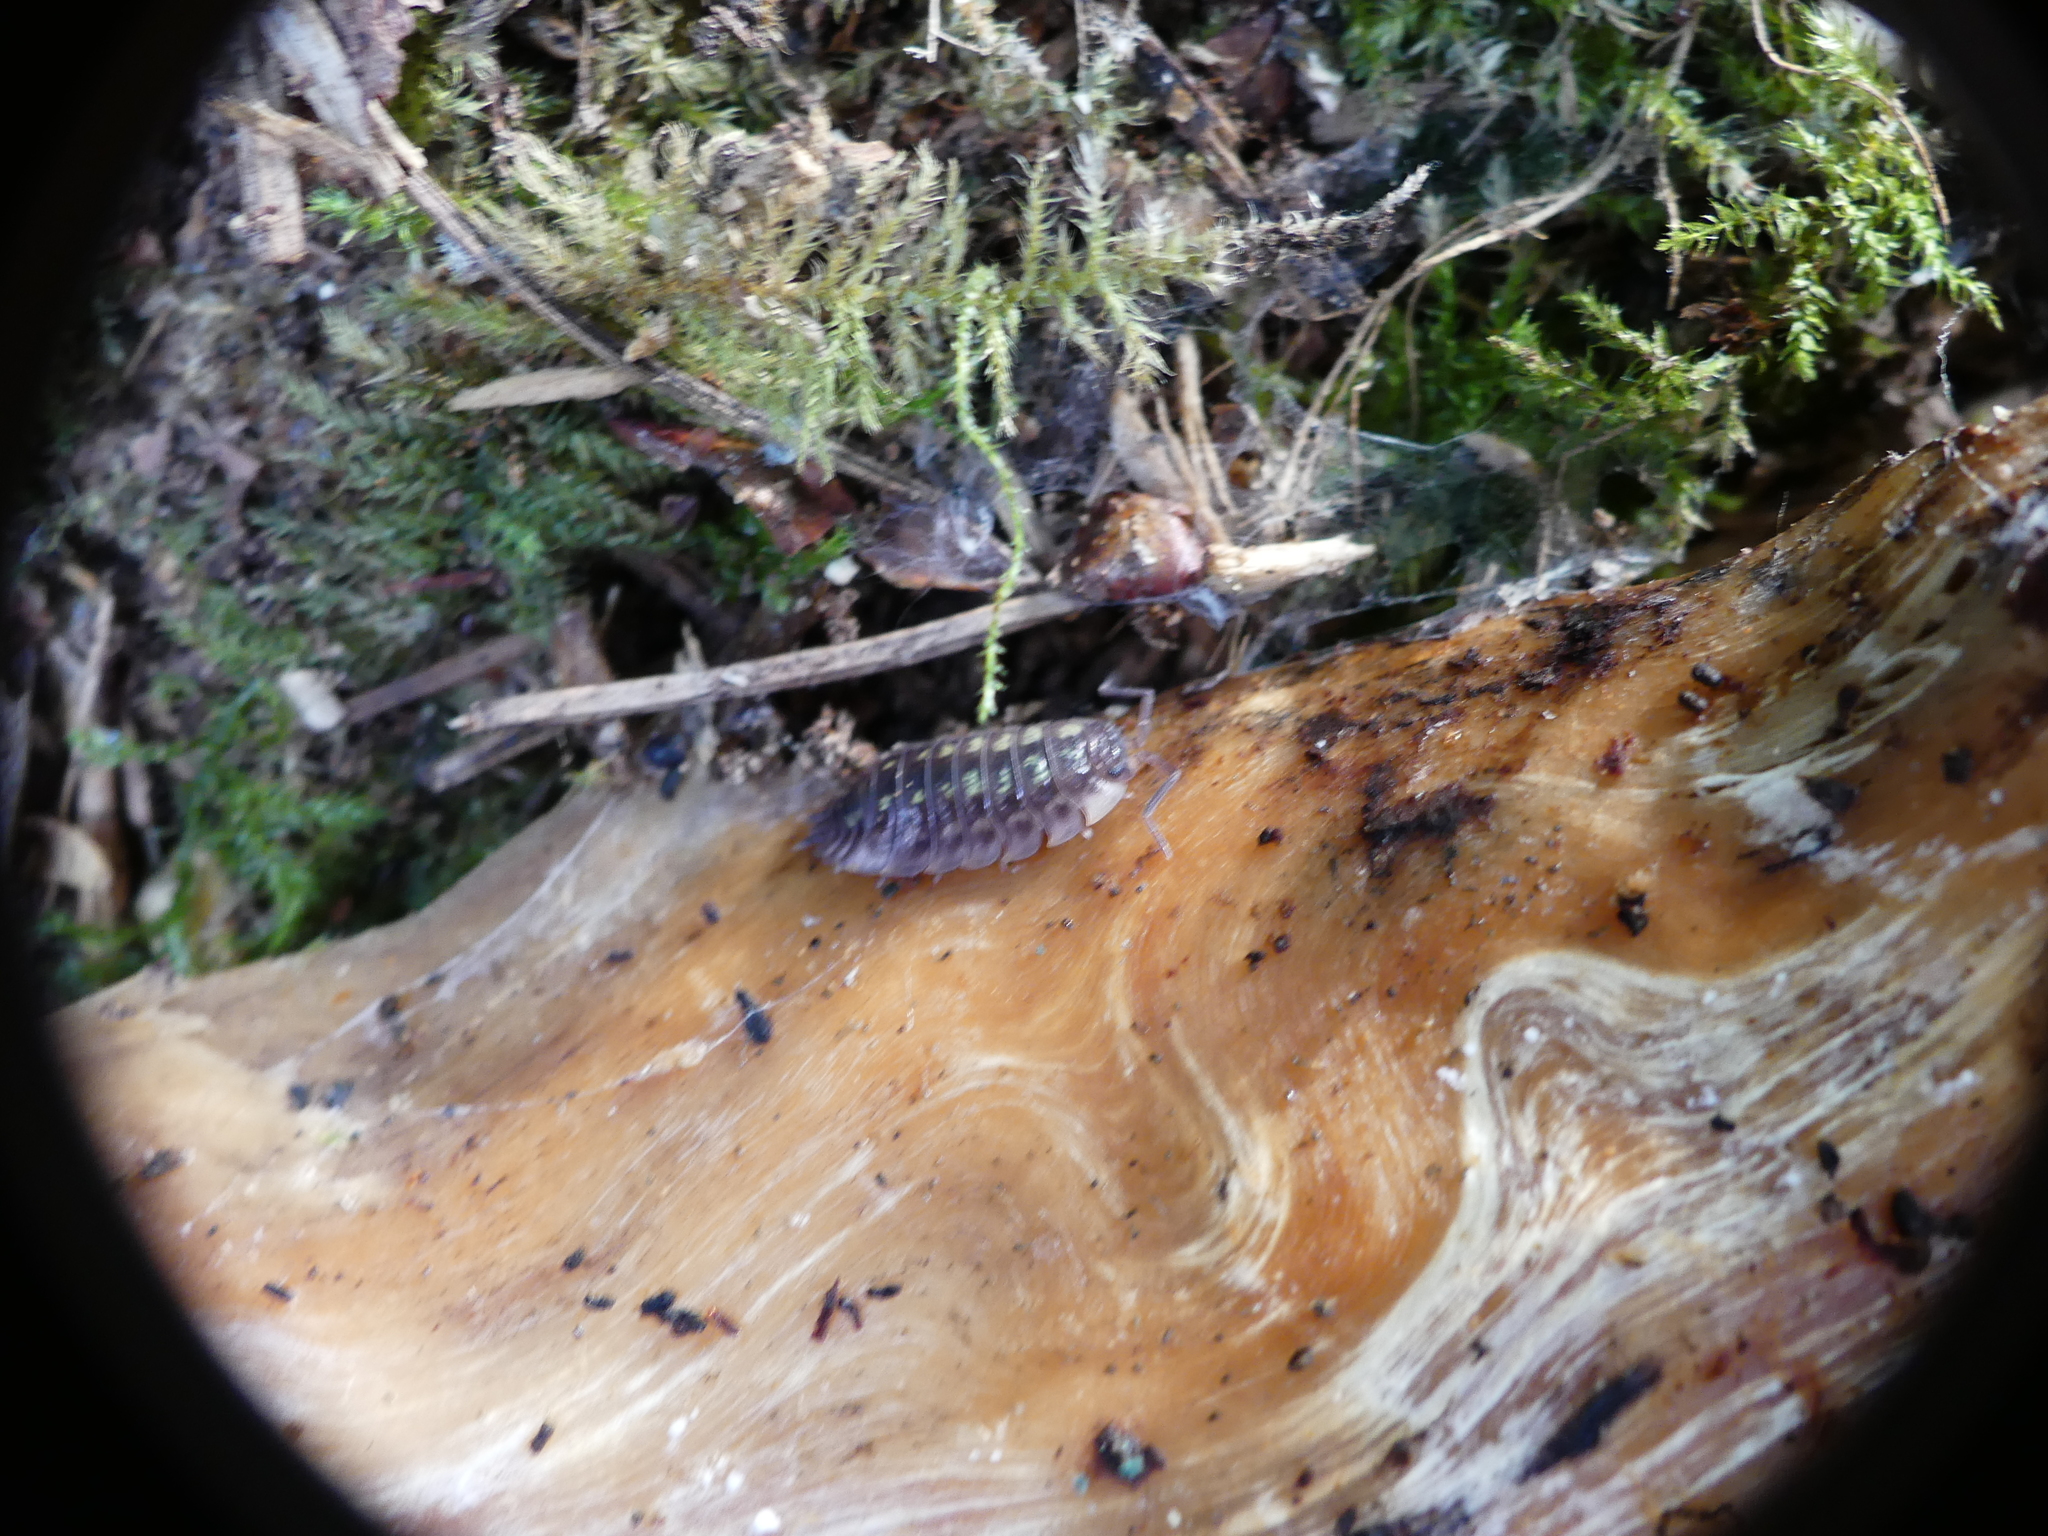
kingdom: Animalia
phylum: Arthropoda
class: Malacostraca
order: Isopoda
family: Oniscidae
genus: Oniscus
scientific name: Oniscus asellus
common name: Common shiny woodlouse
